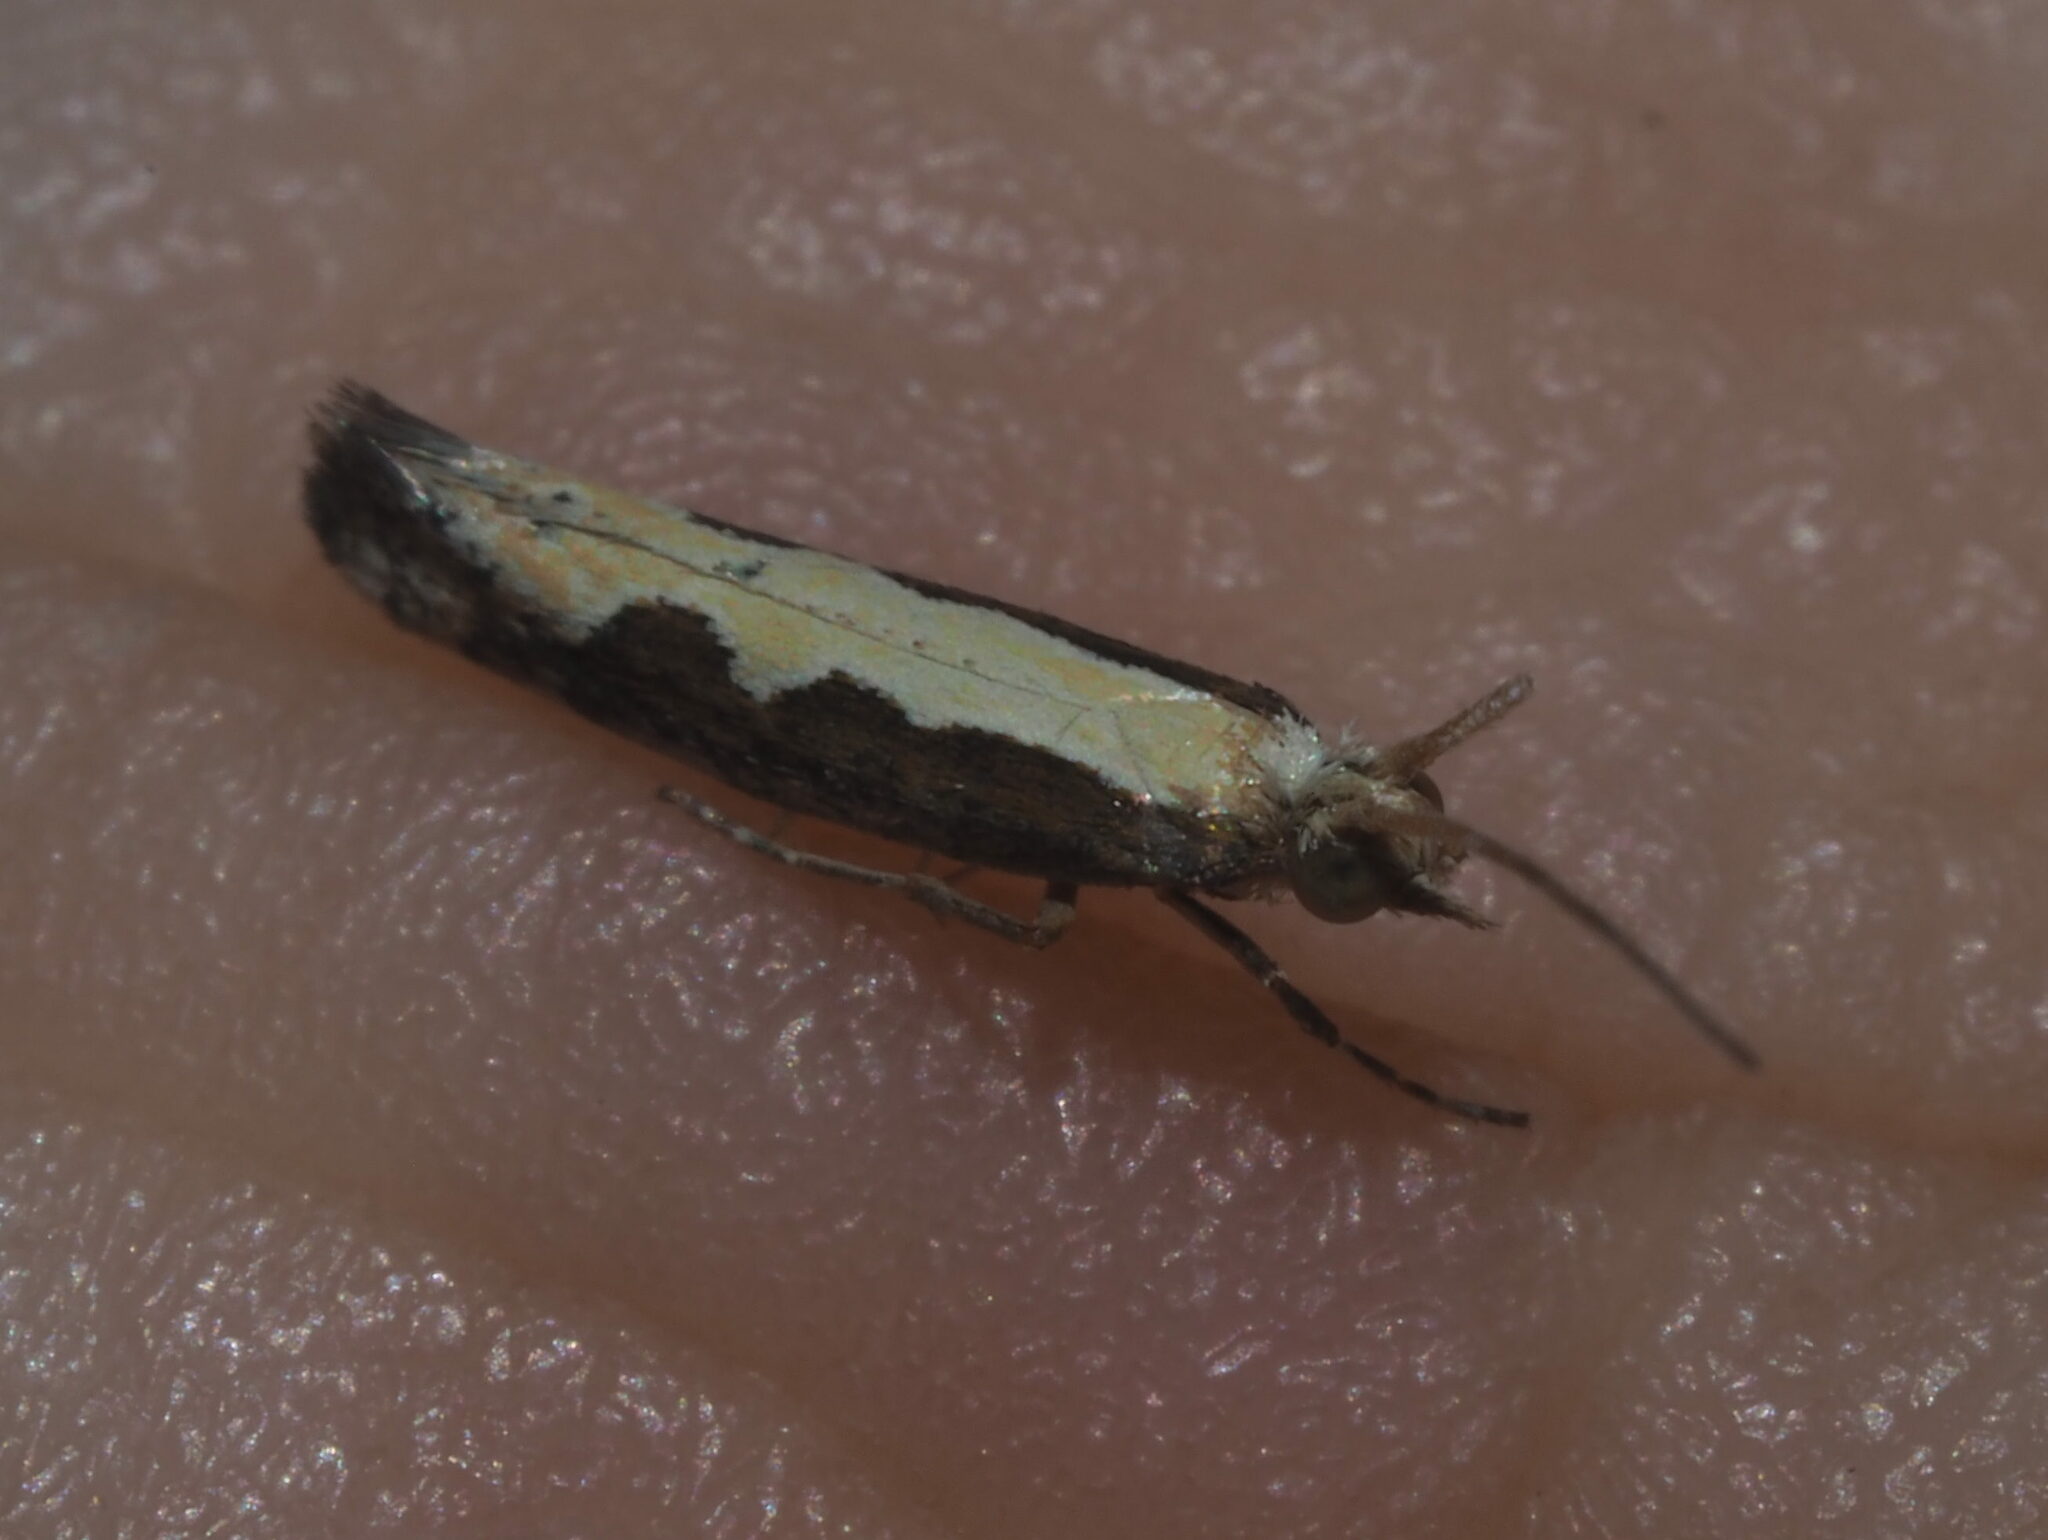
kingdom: Animalia
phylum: Arthropoda
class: Insecta
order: Lepidoptera
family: Plutellidae
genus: Plutella
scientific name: Plutella xylostella
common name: Diamond-back moth
